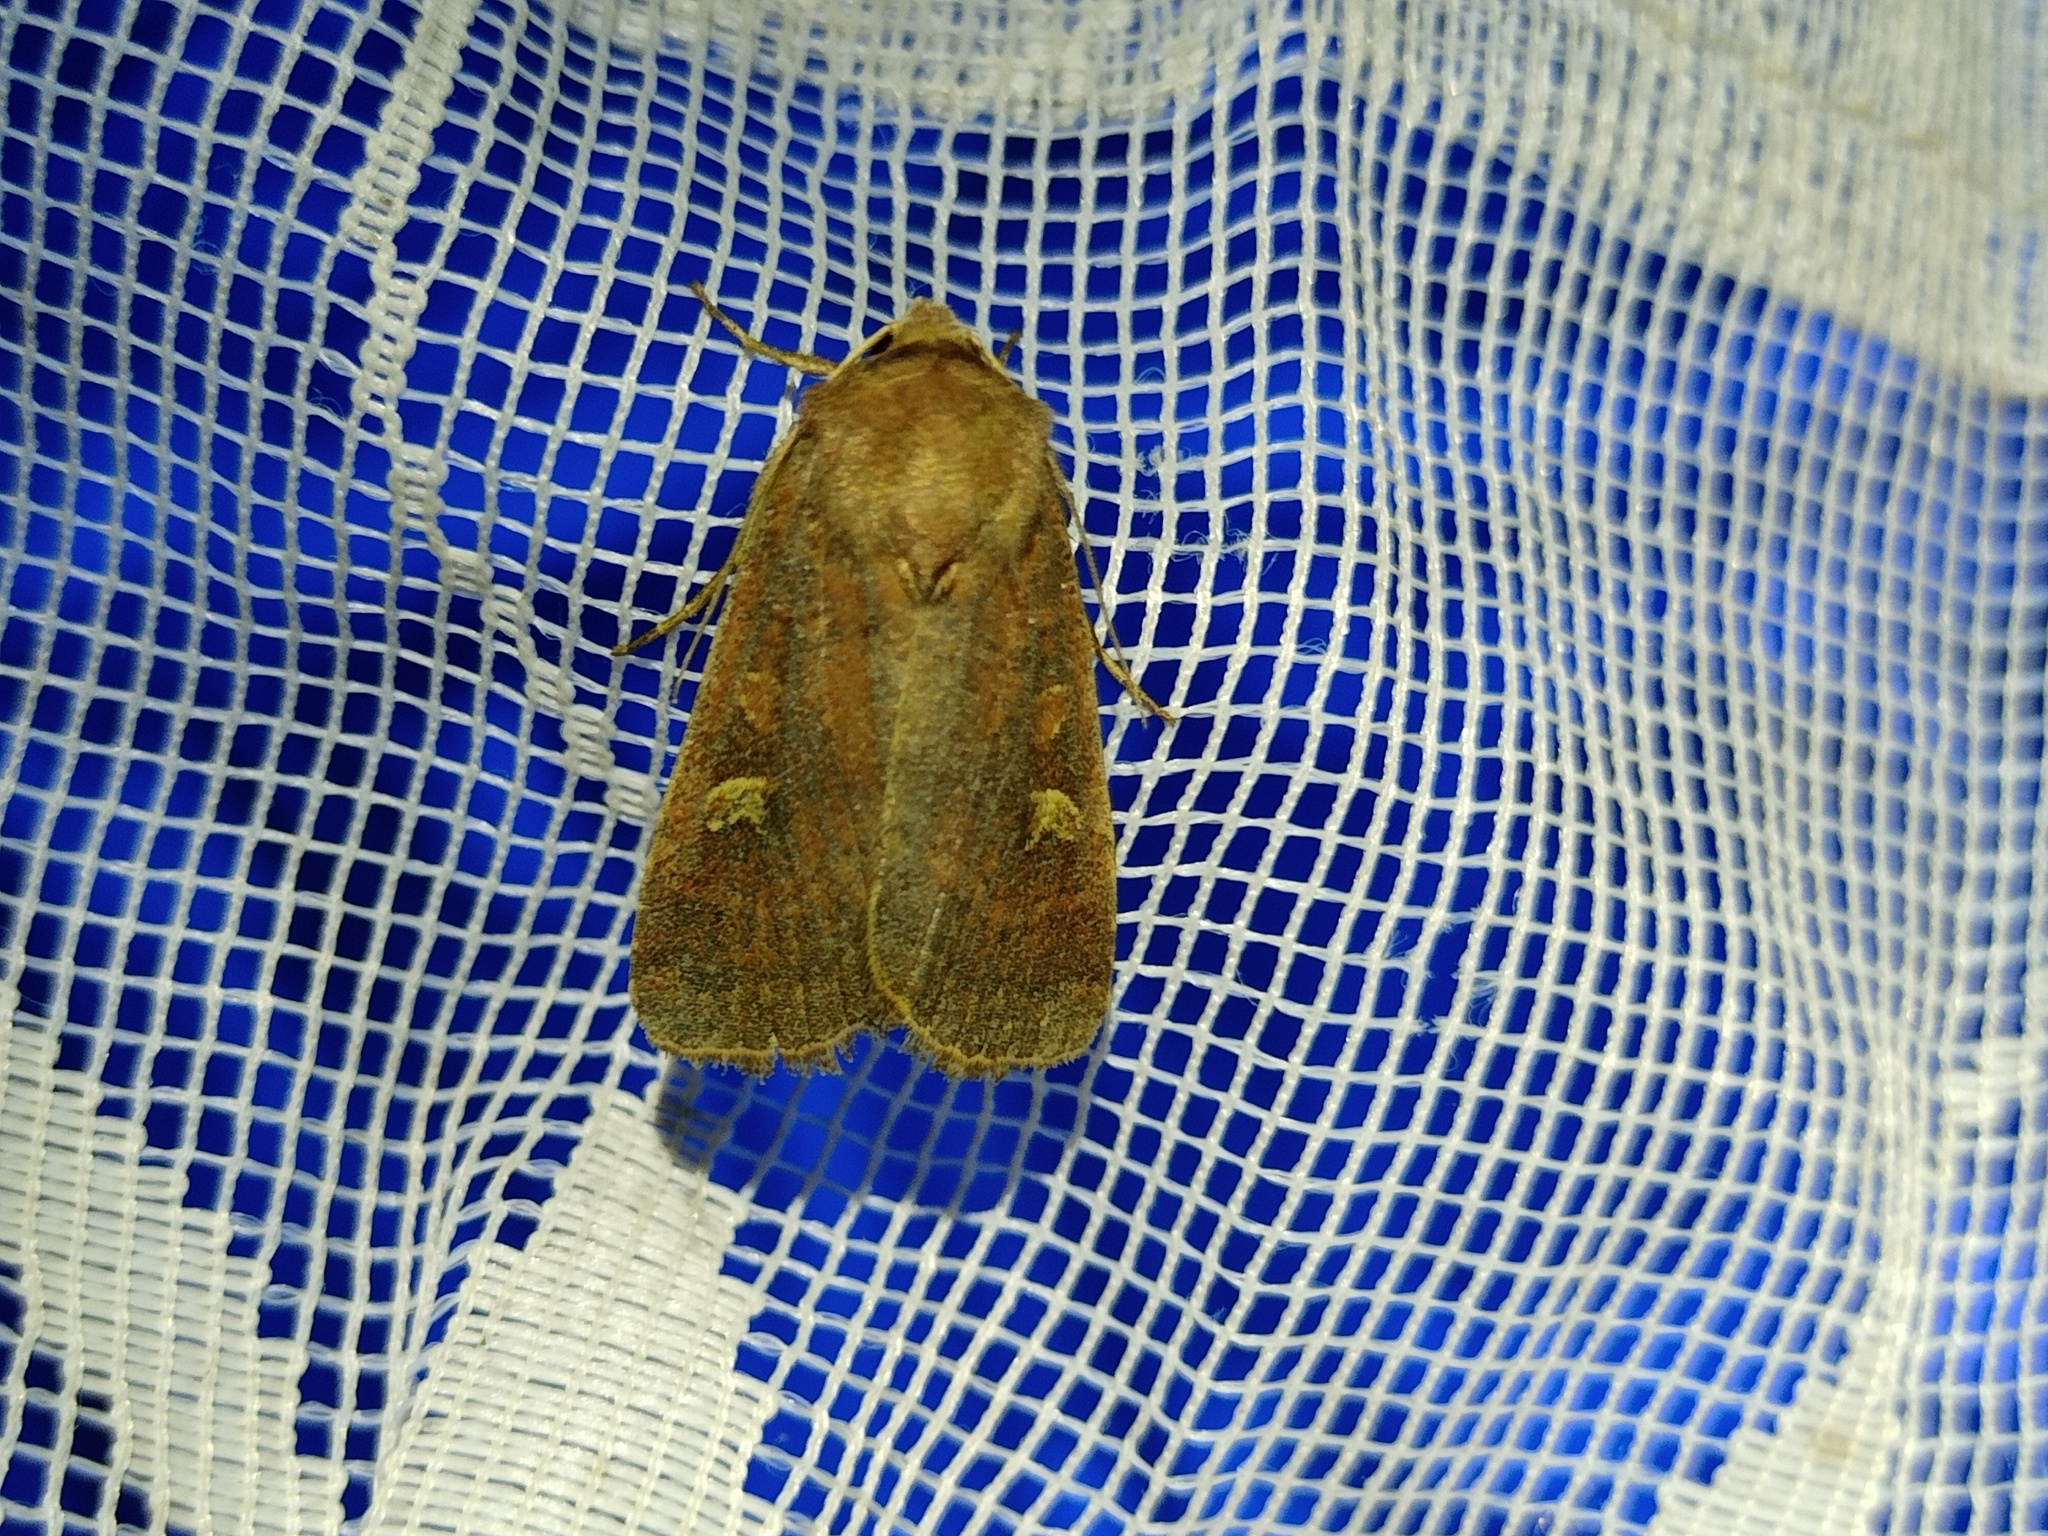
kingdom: Animalia
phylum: Arthropoda
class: Insecta
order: Lepidoptera
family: Noctuidae
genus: Xestia
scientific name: Xestia xanthographa
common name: Square-spot rustic
